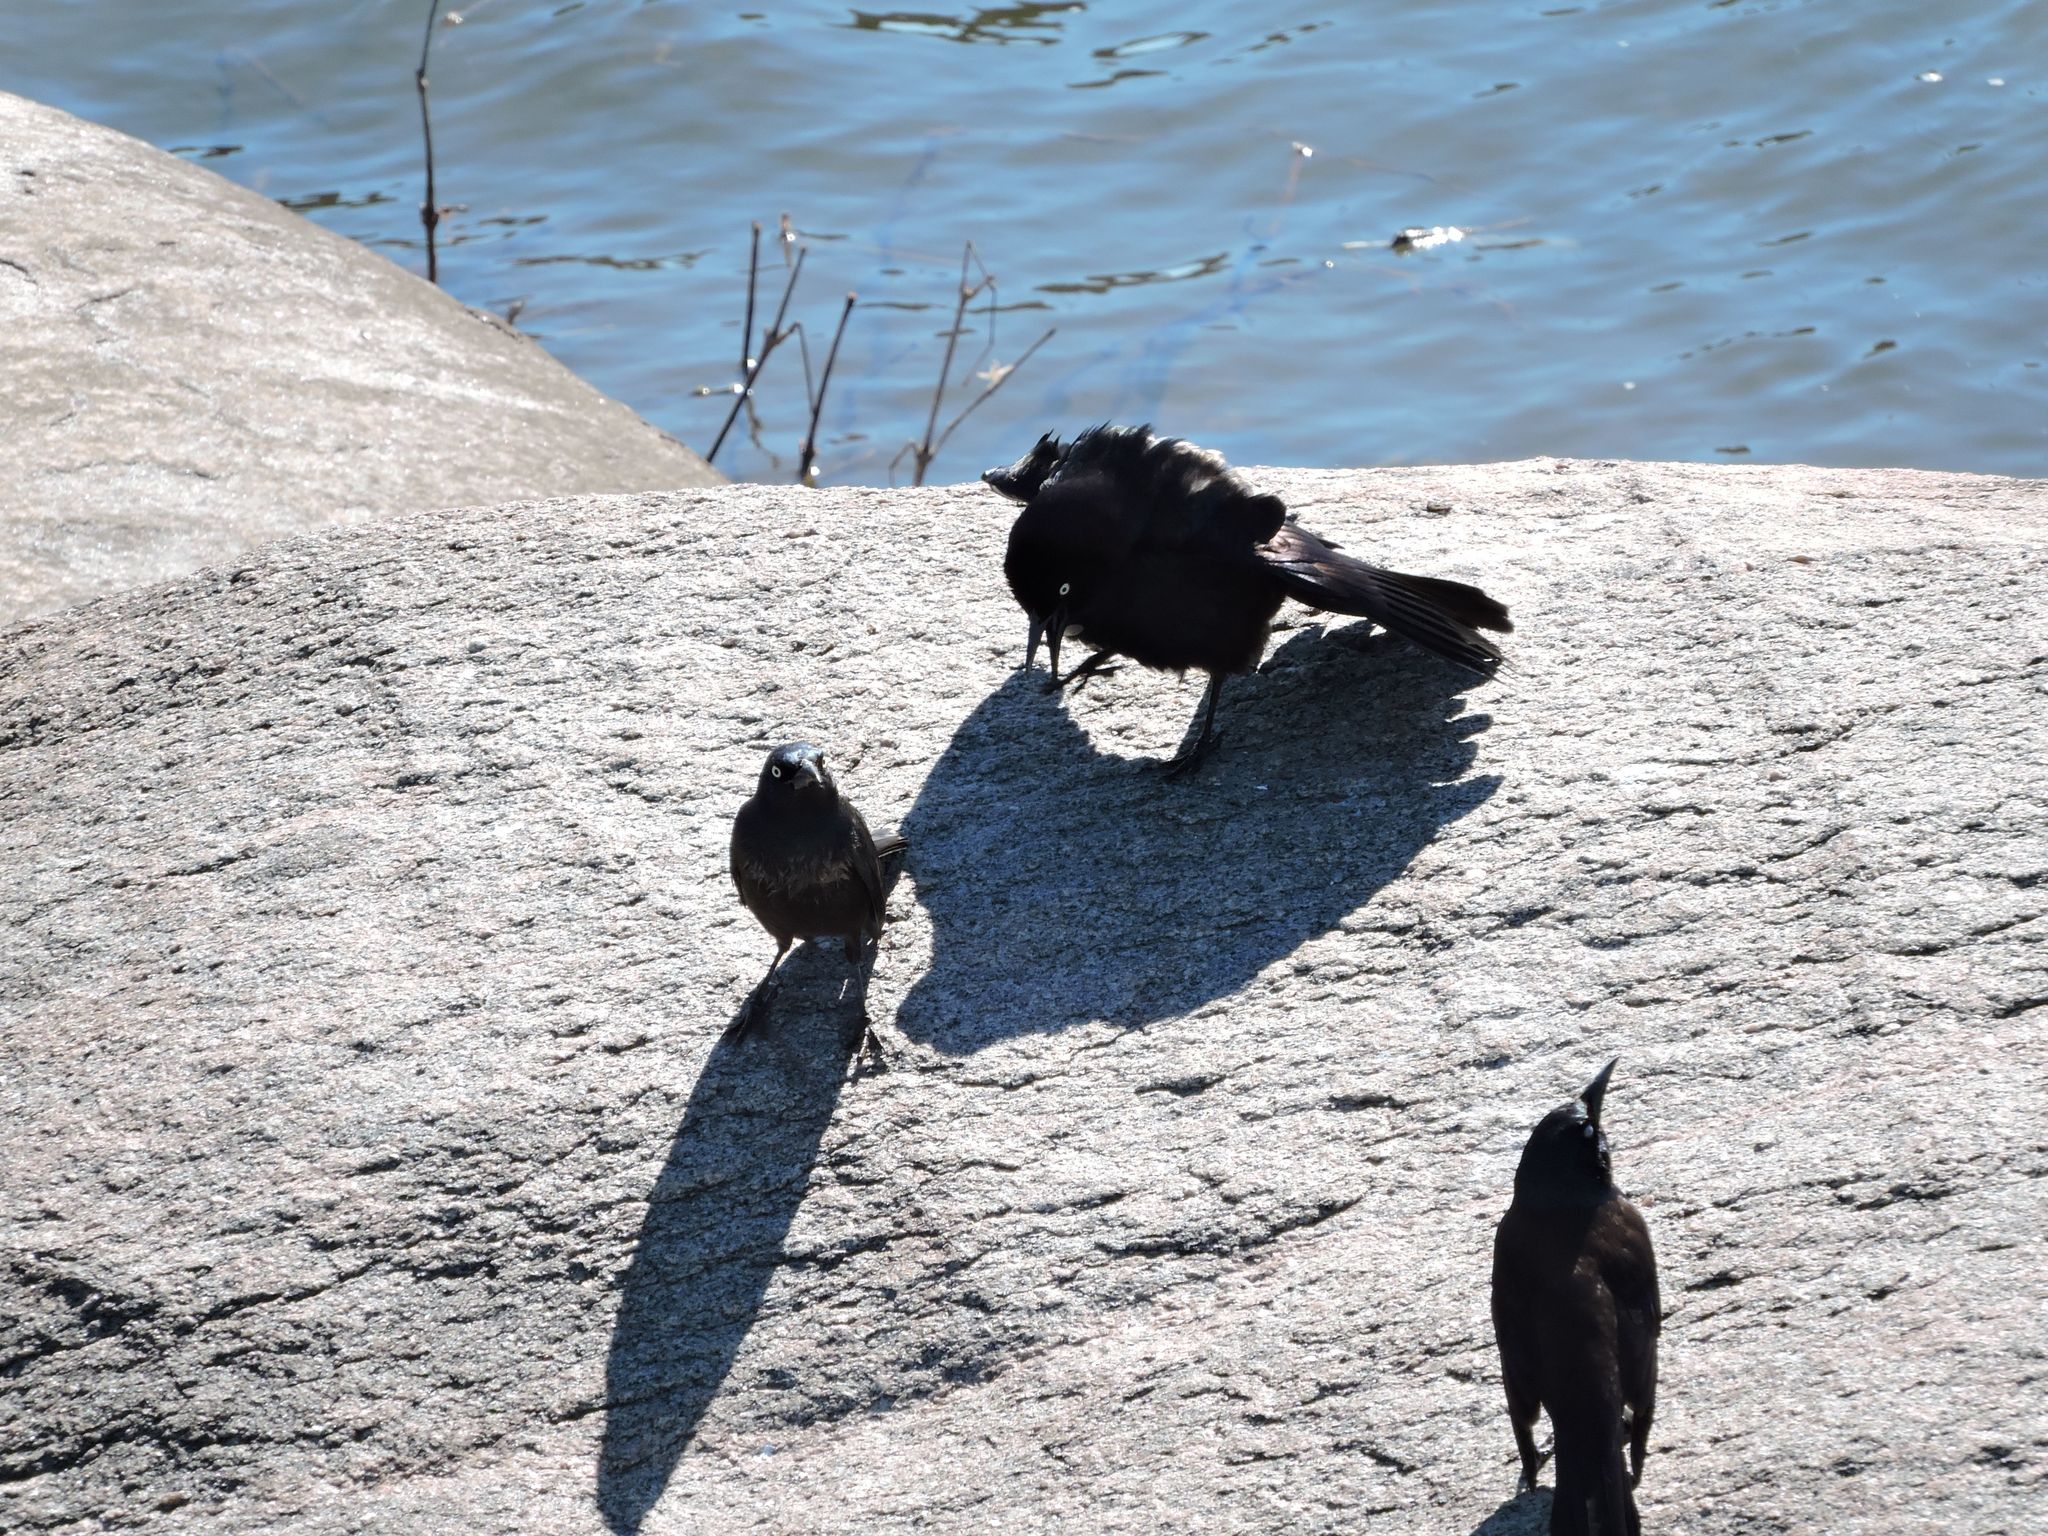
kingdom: Animalia
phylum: Chordata
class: Aves
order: Passeriformes
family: Icteridae
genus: Quiscalus
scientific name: Quiscalus quiscula
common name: Common grackle
